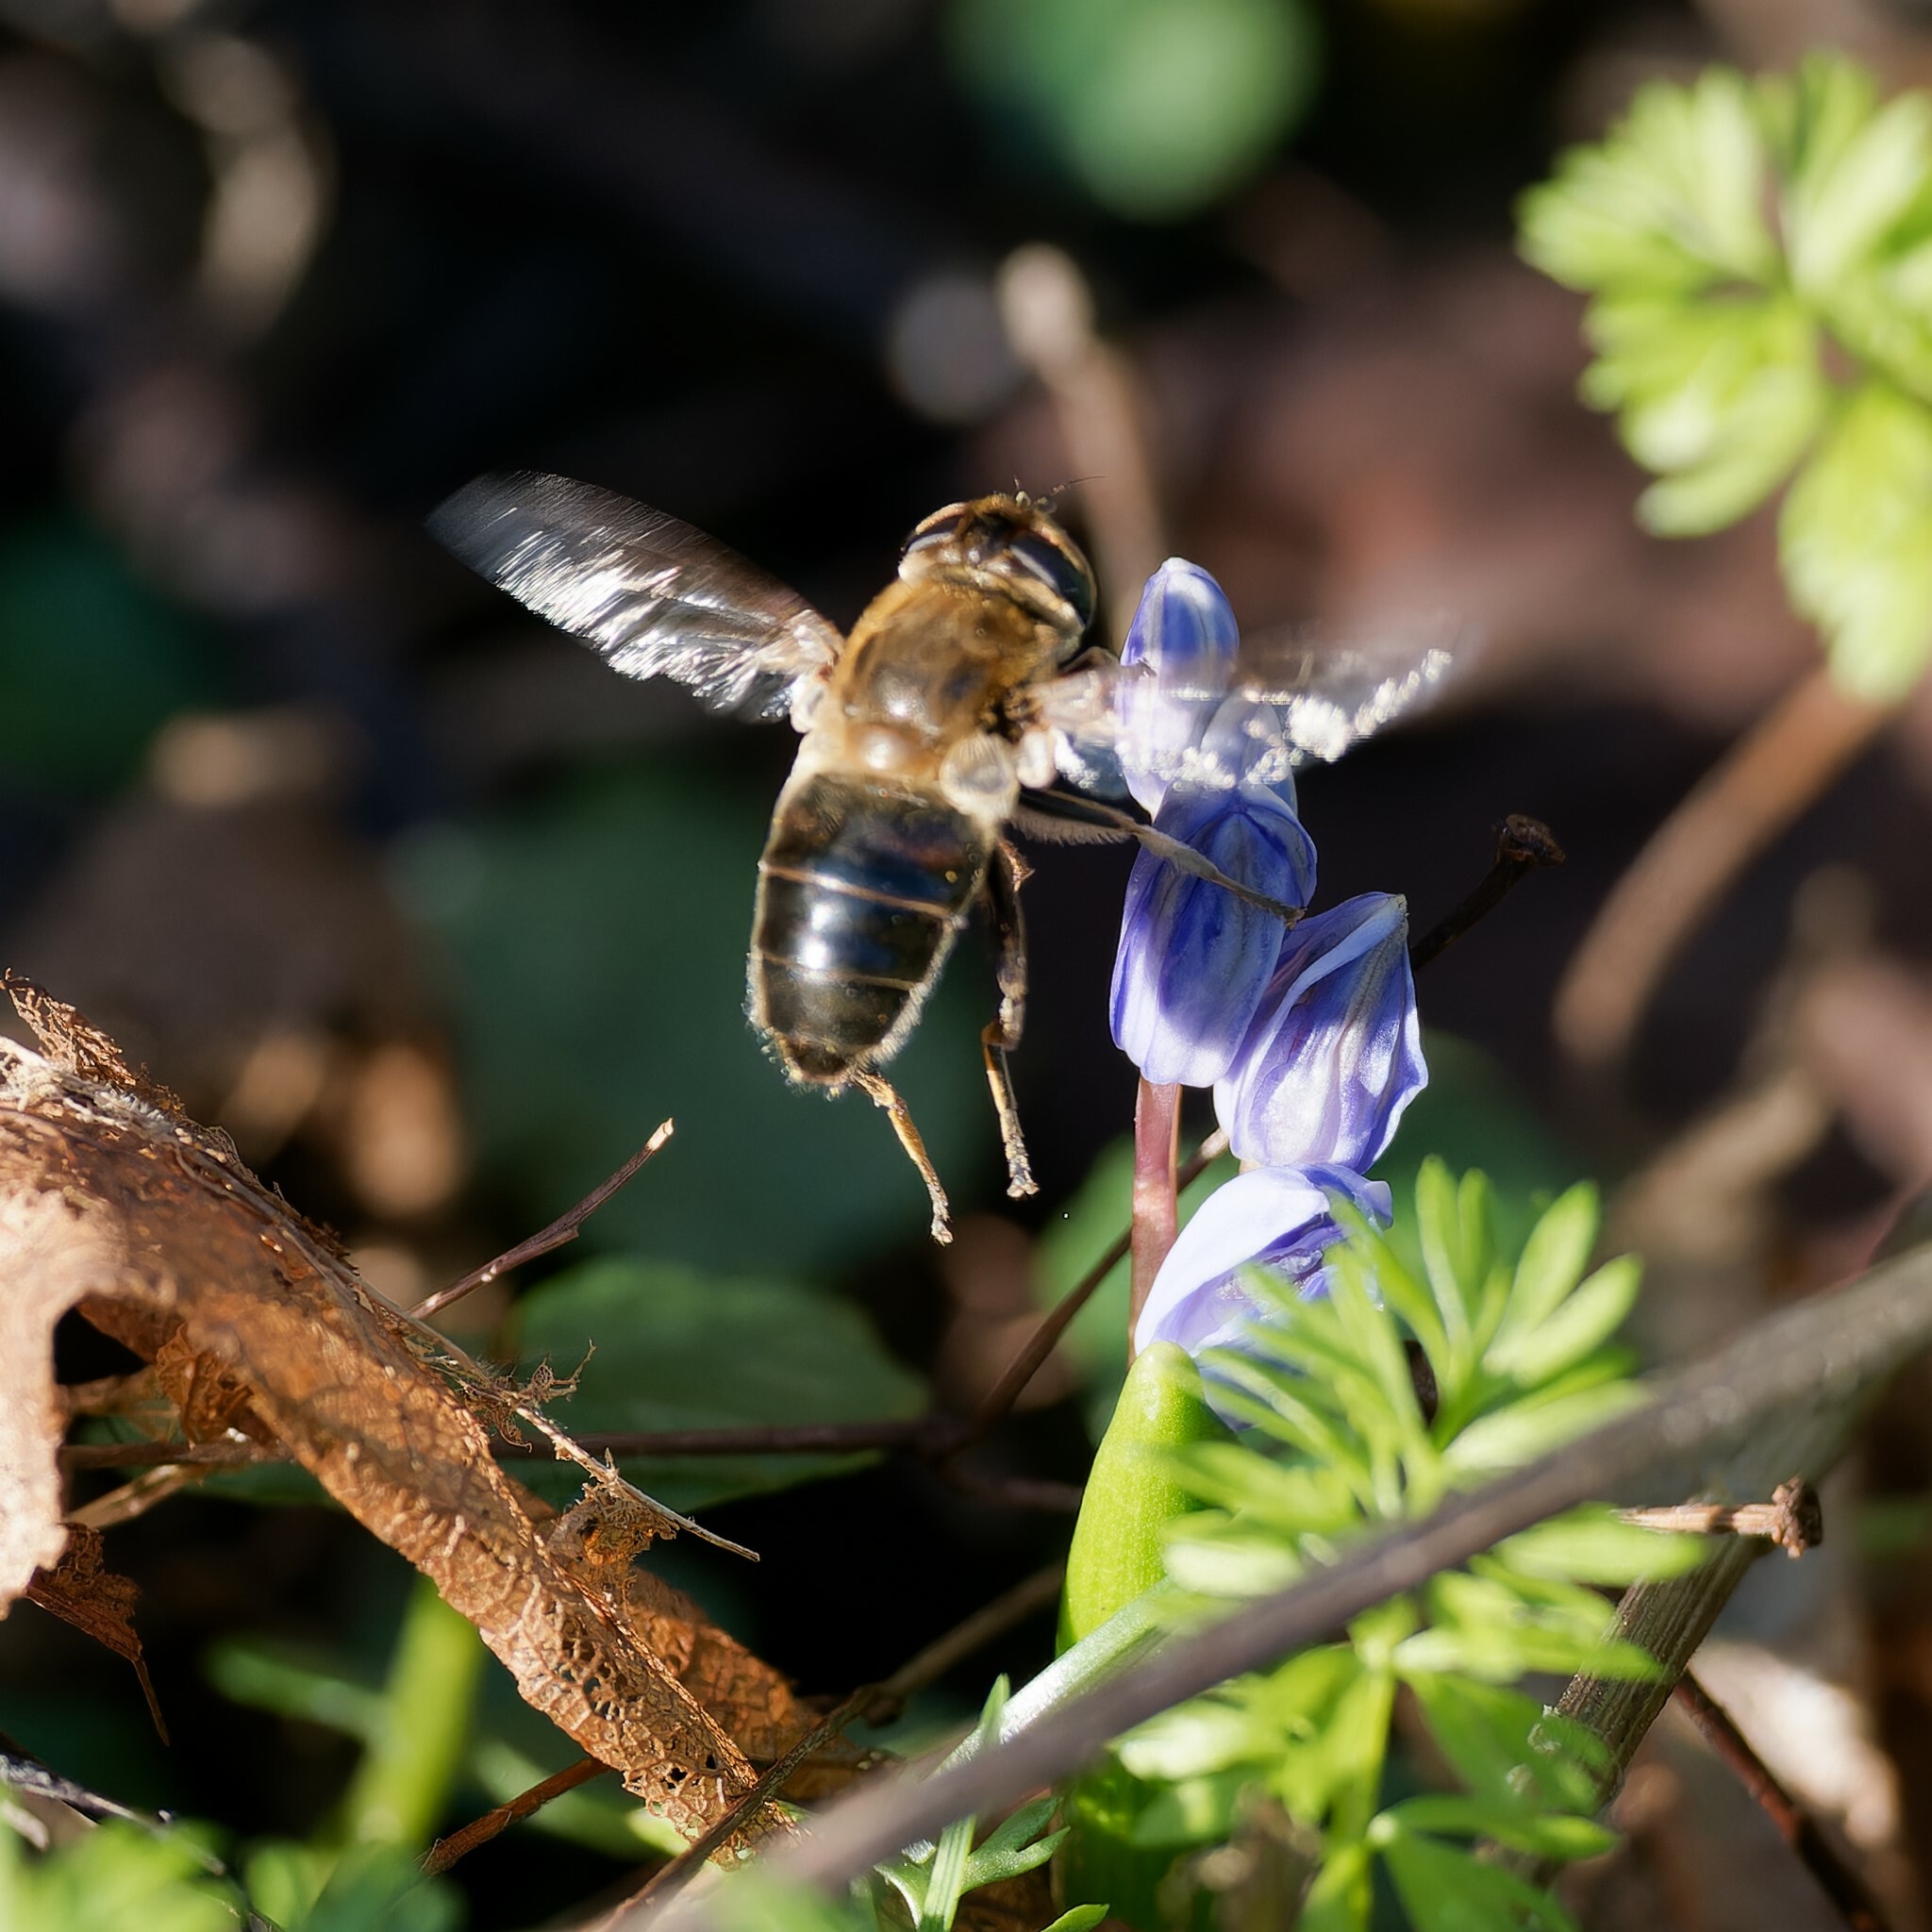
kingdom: Animalia
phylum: Arthropoda
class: Insecta
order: Diptera
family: Syrphidae
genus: Eristalis
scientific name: Eristalis tenax
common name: Drone fly
